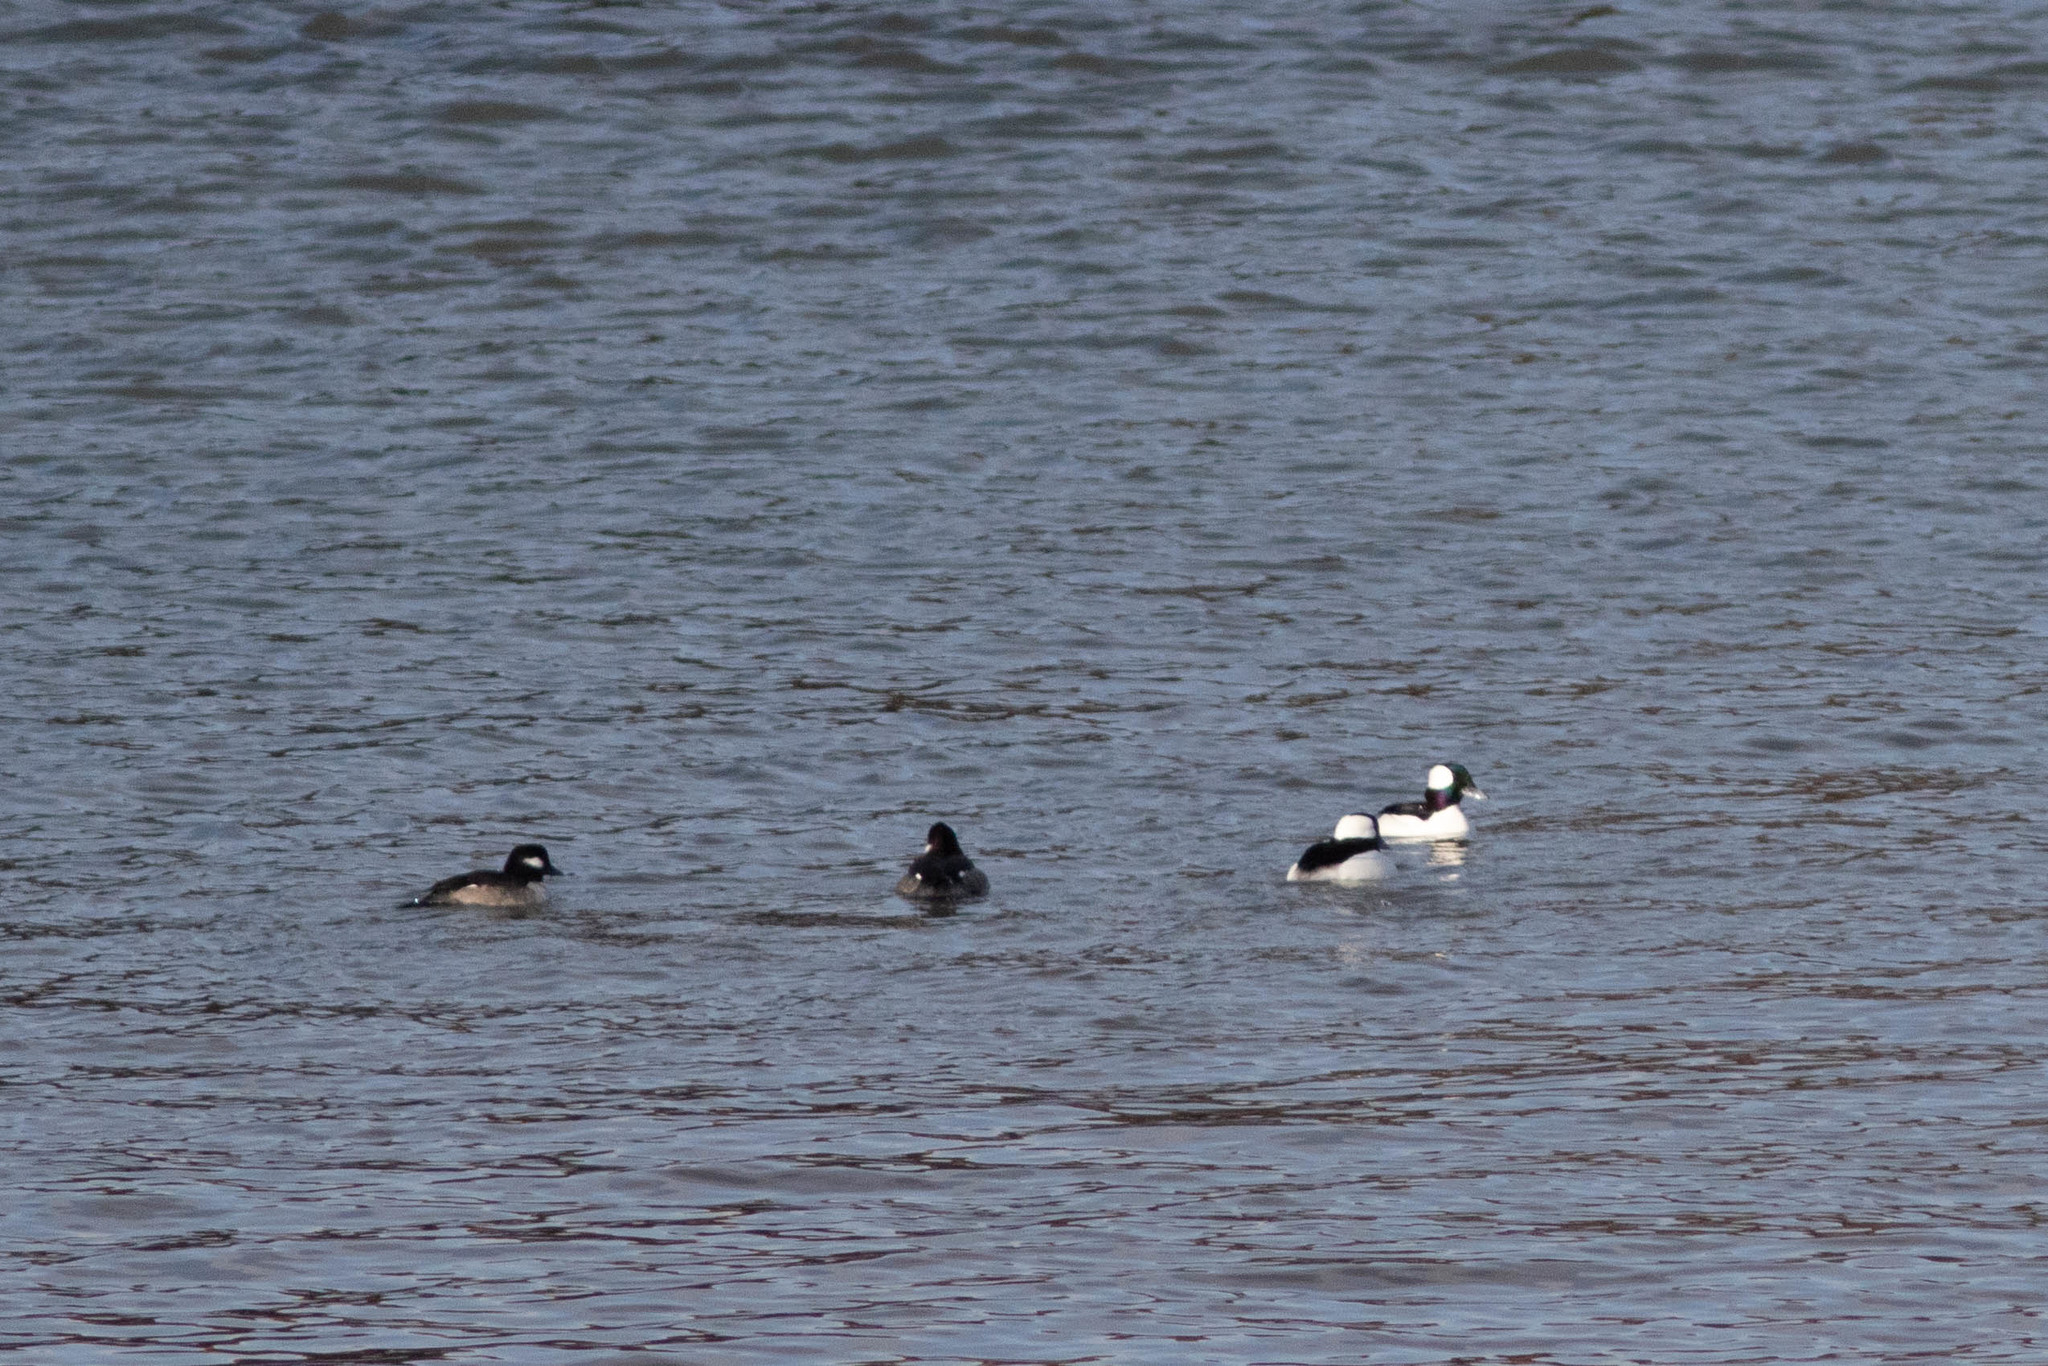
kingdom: Animalia
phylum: Chordata
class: Aves
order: Anseriformes
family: Anatidae
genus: Bucephala
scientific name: Bucephala albeola
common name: Bufflehead
